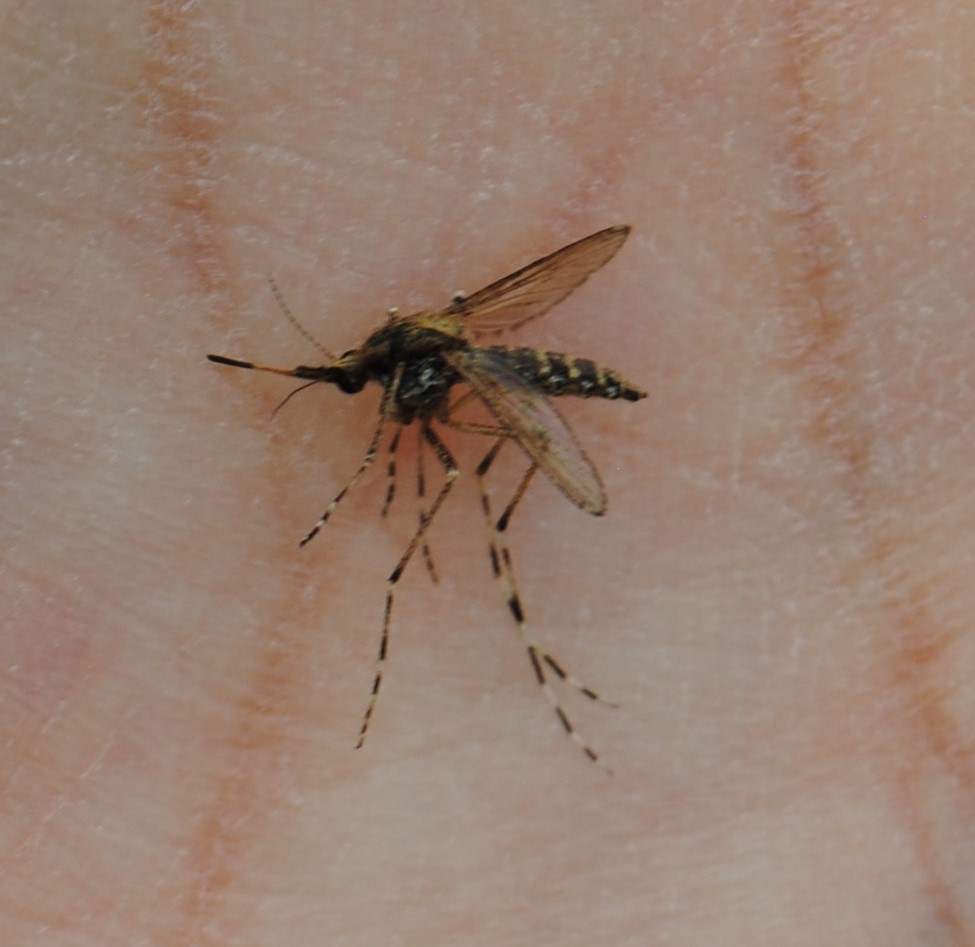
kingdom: Animalia
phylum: Arthropoda
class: Insecta
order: Diptera
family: Culicidae
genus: Aedes
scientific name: Aedes sollicitans
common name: Saltmarsh mosquito
